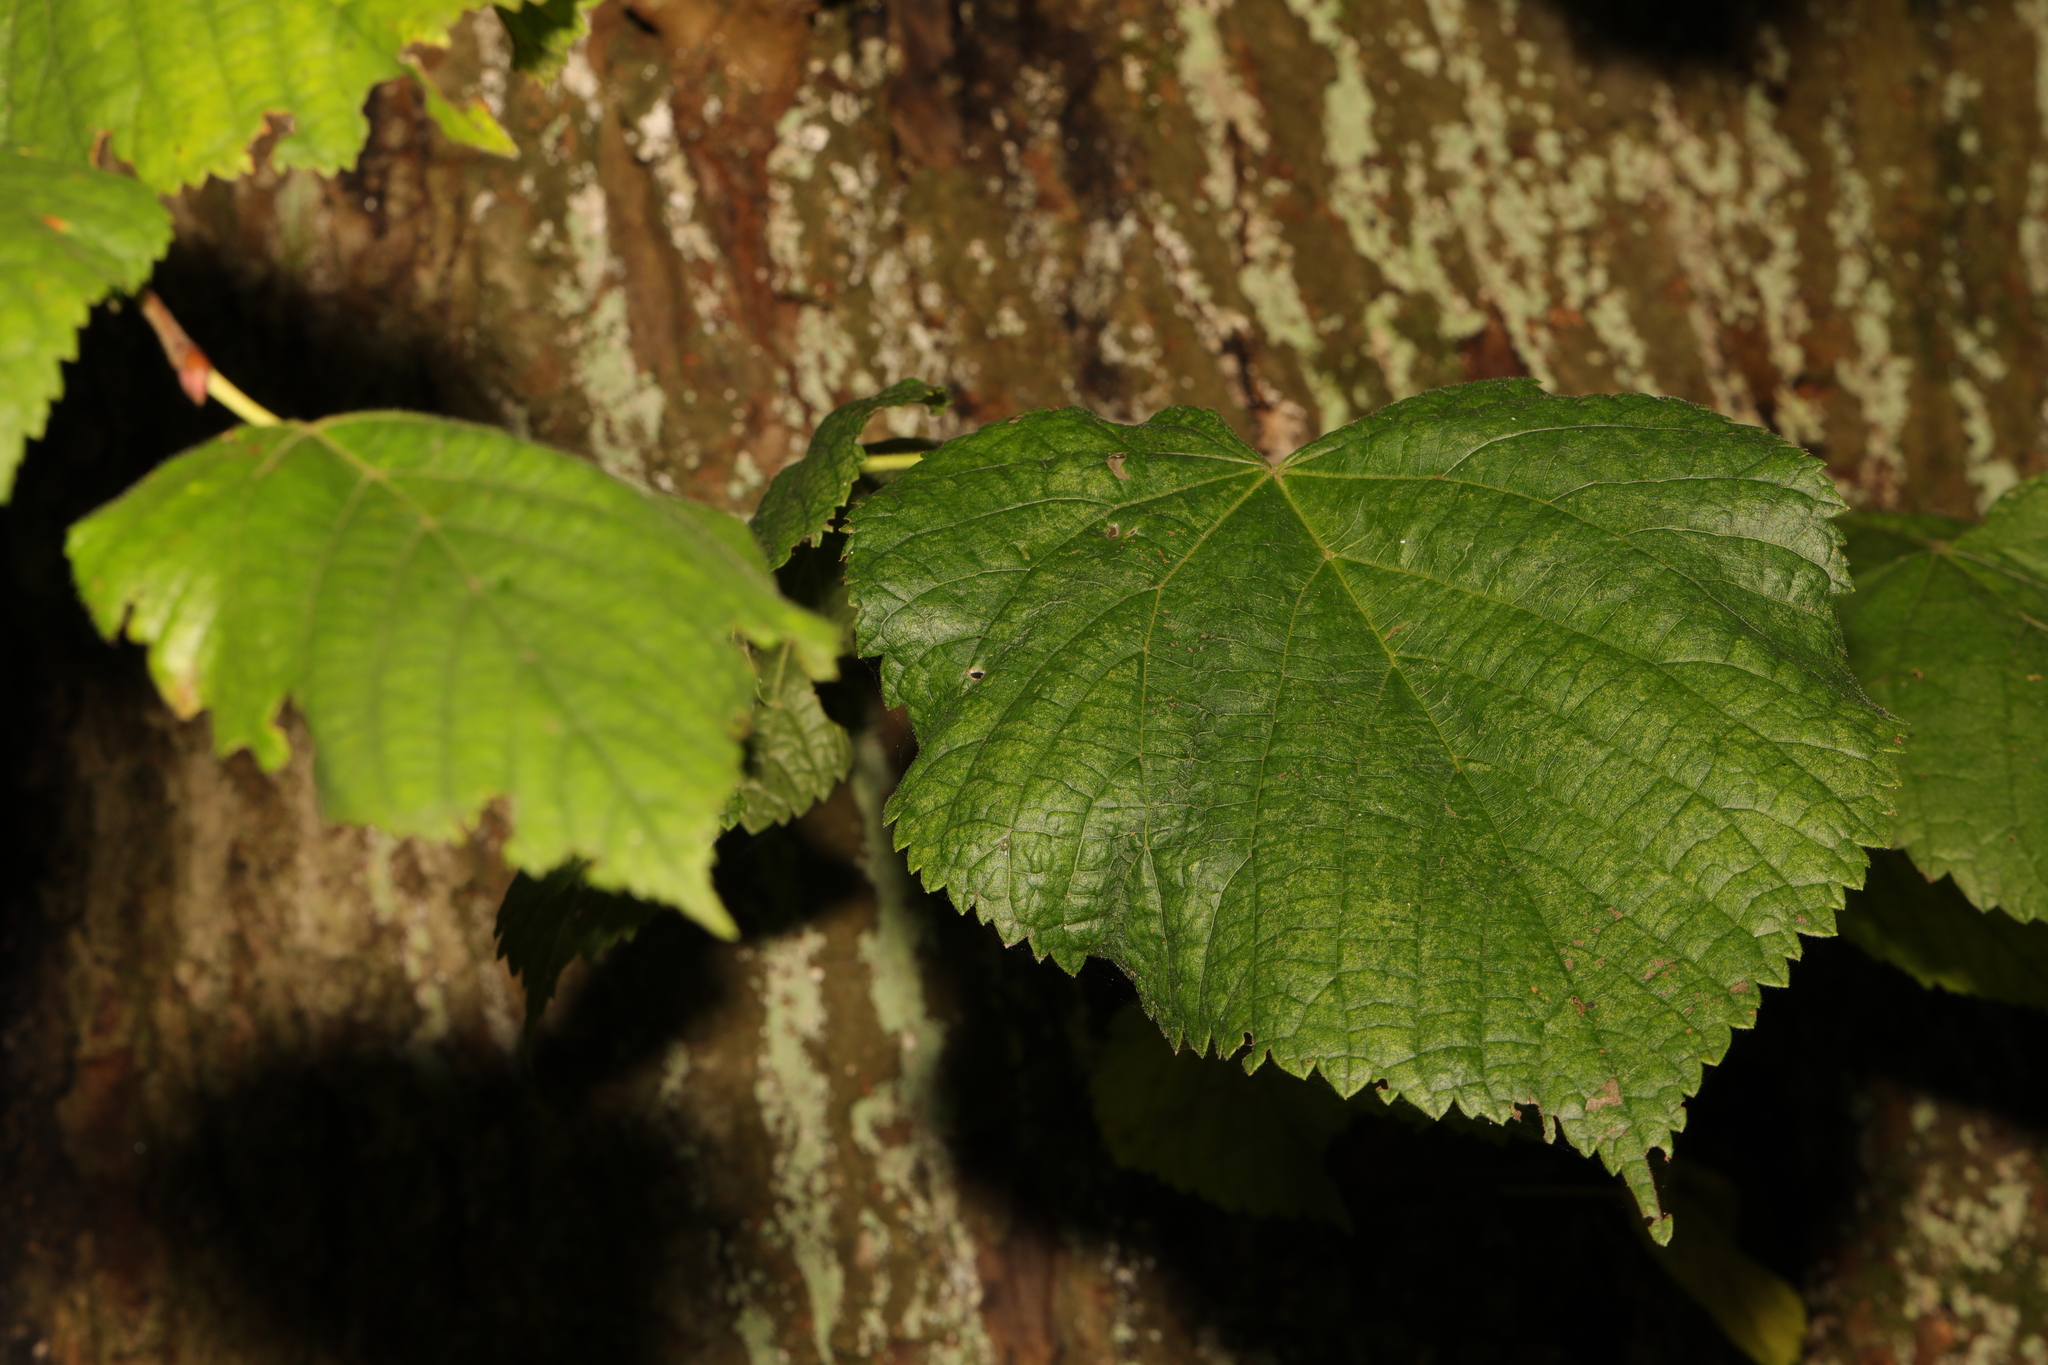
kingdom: Plantae
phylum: Tracheophyta
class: Magnoliopsida
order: Malvales
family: Malvaceae
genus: Tilia
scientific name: Tilia europaea
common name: European linden
